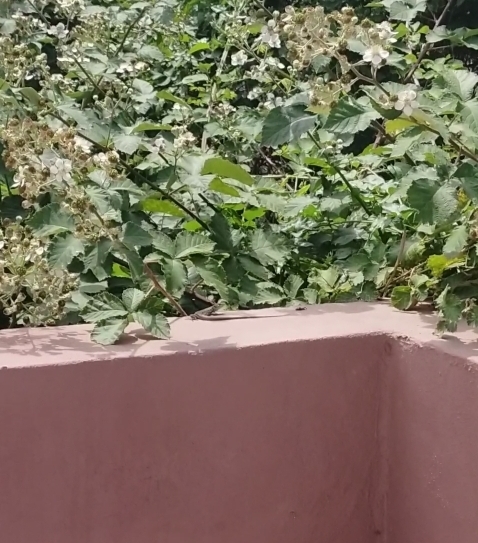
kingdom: Animalia
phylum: Chordata
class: Squamata
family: Lacertidae
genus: Podarcis
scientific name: Podarcis siculus
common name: Italian wall lizard
